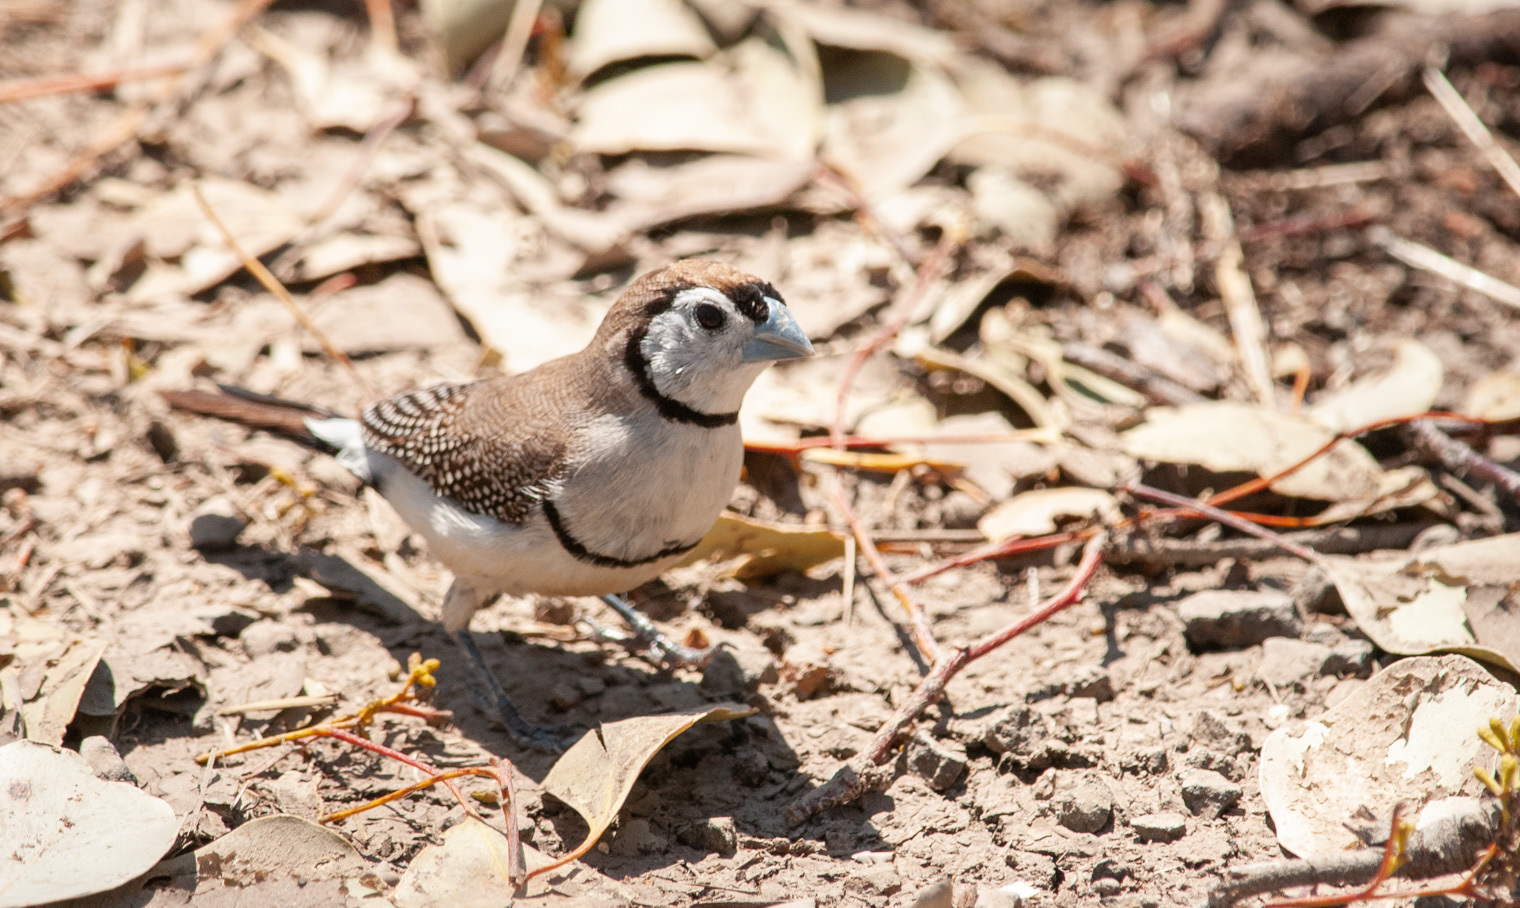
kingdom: Animalia
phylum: Chordata
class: Aves
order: Passeriformes
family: Estrildidae
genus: Taeniopygia
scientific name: Taeniopygia bichenovii
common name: Double-barred finch
